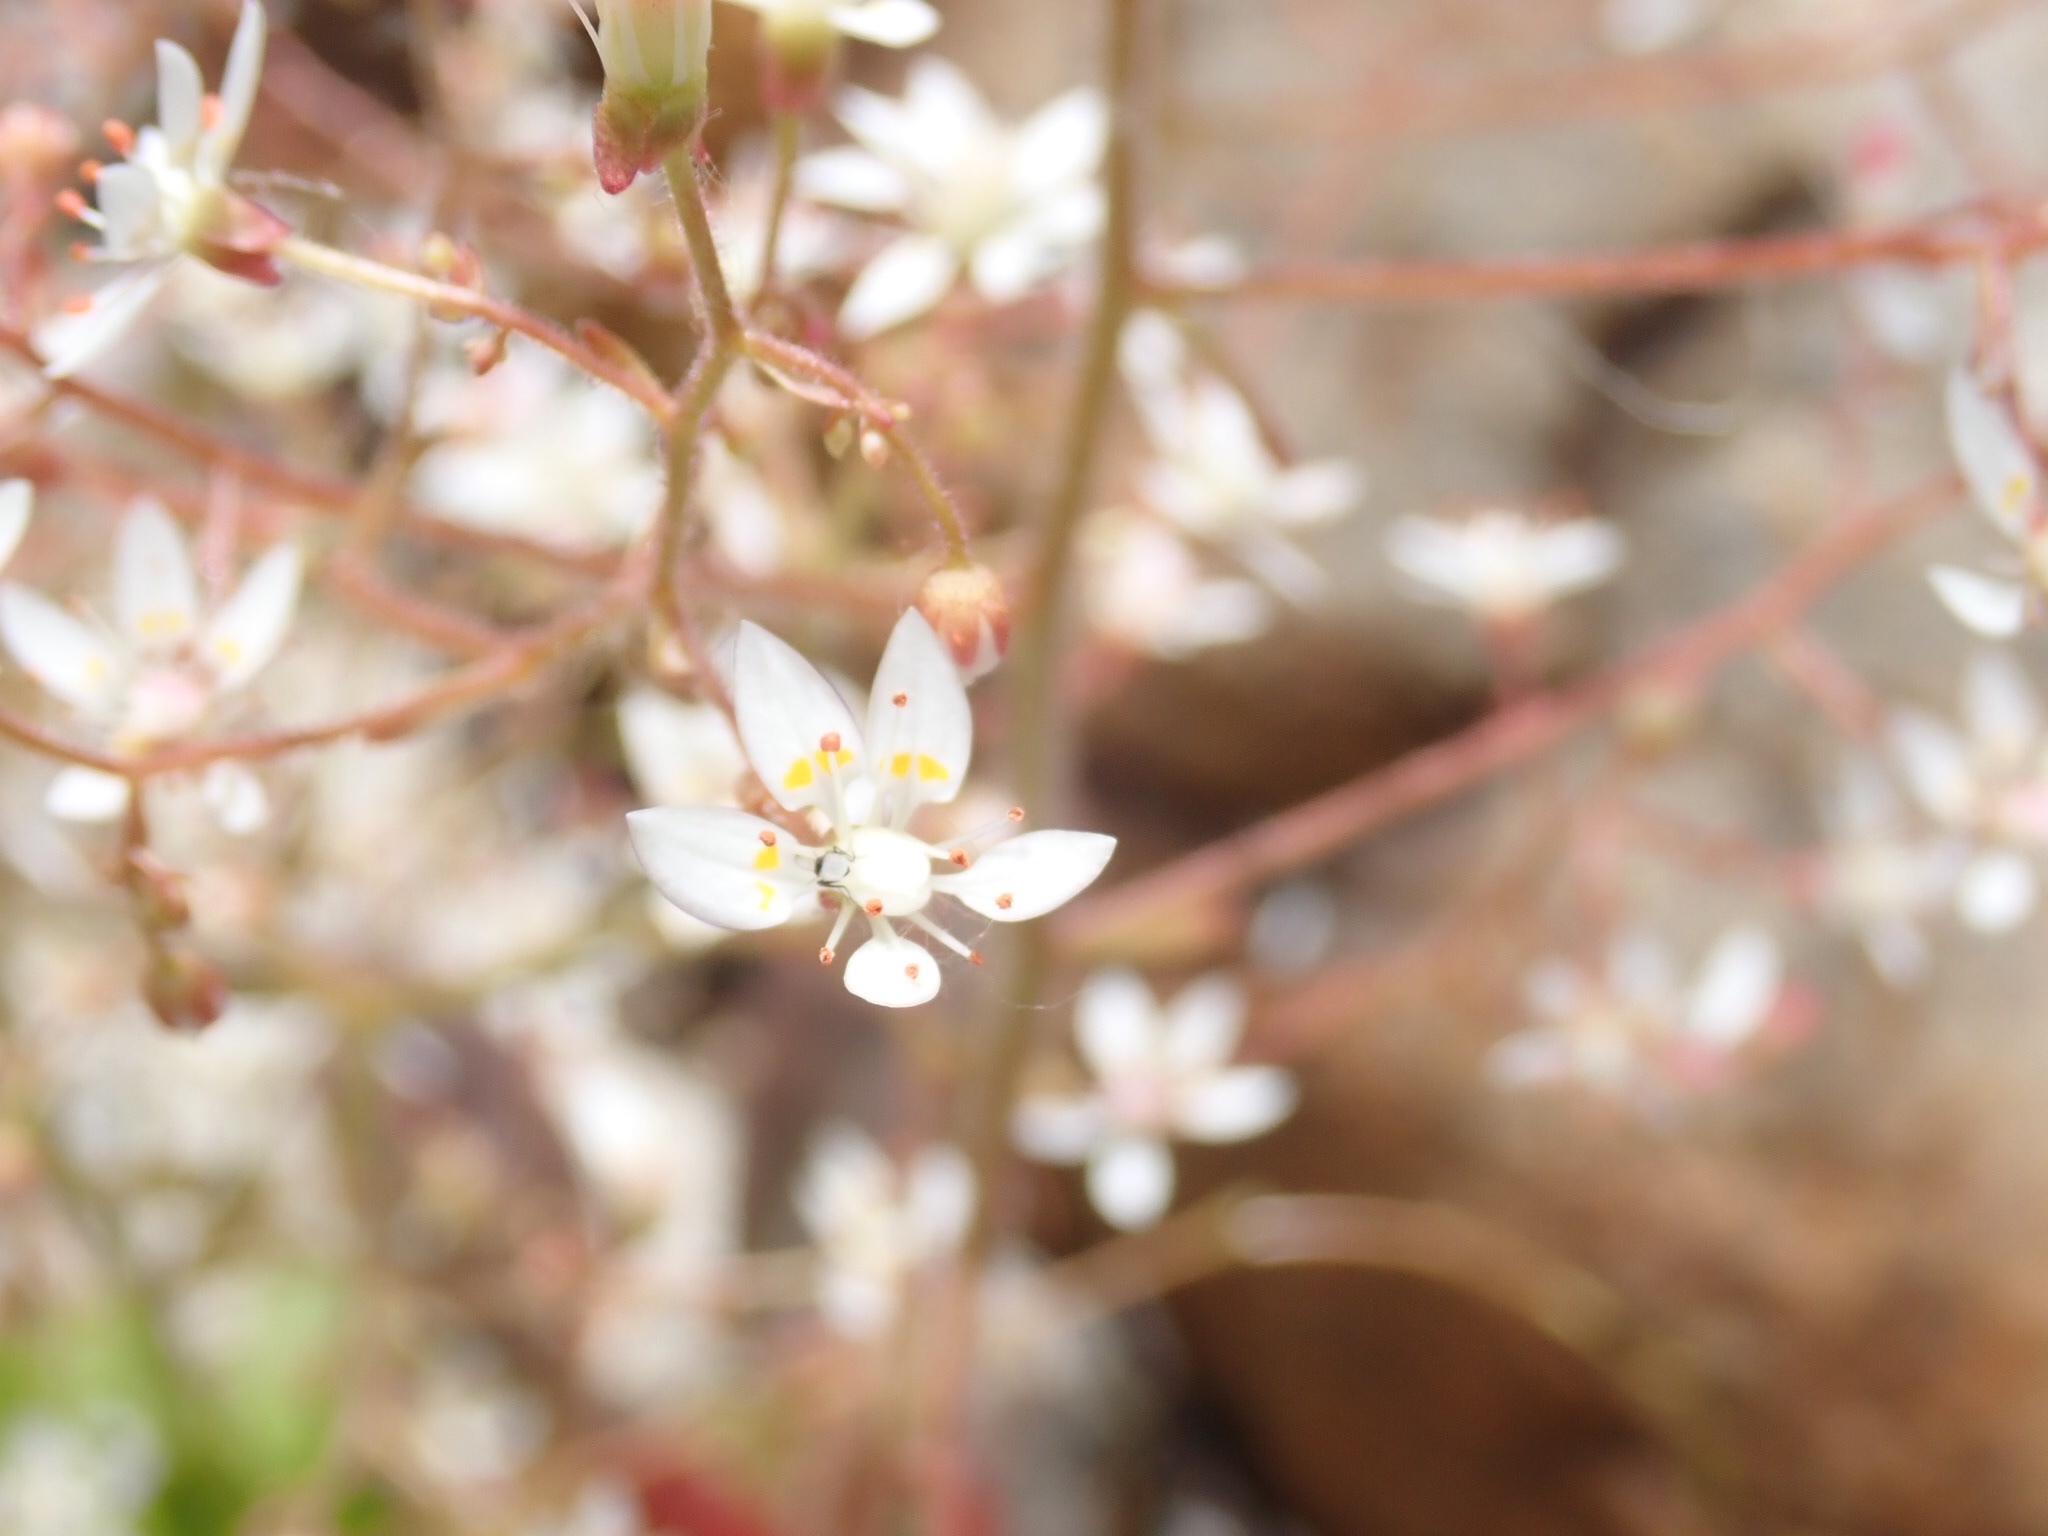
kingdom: Plantae
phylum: Tracheophyta
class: Magnoliopsida
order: Saxifragales
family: Saxifragaceae
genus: Micranthes
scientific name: Micranthes ferruginea
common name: Rusty saxifrage
